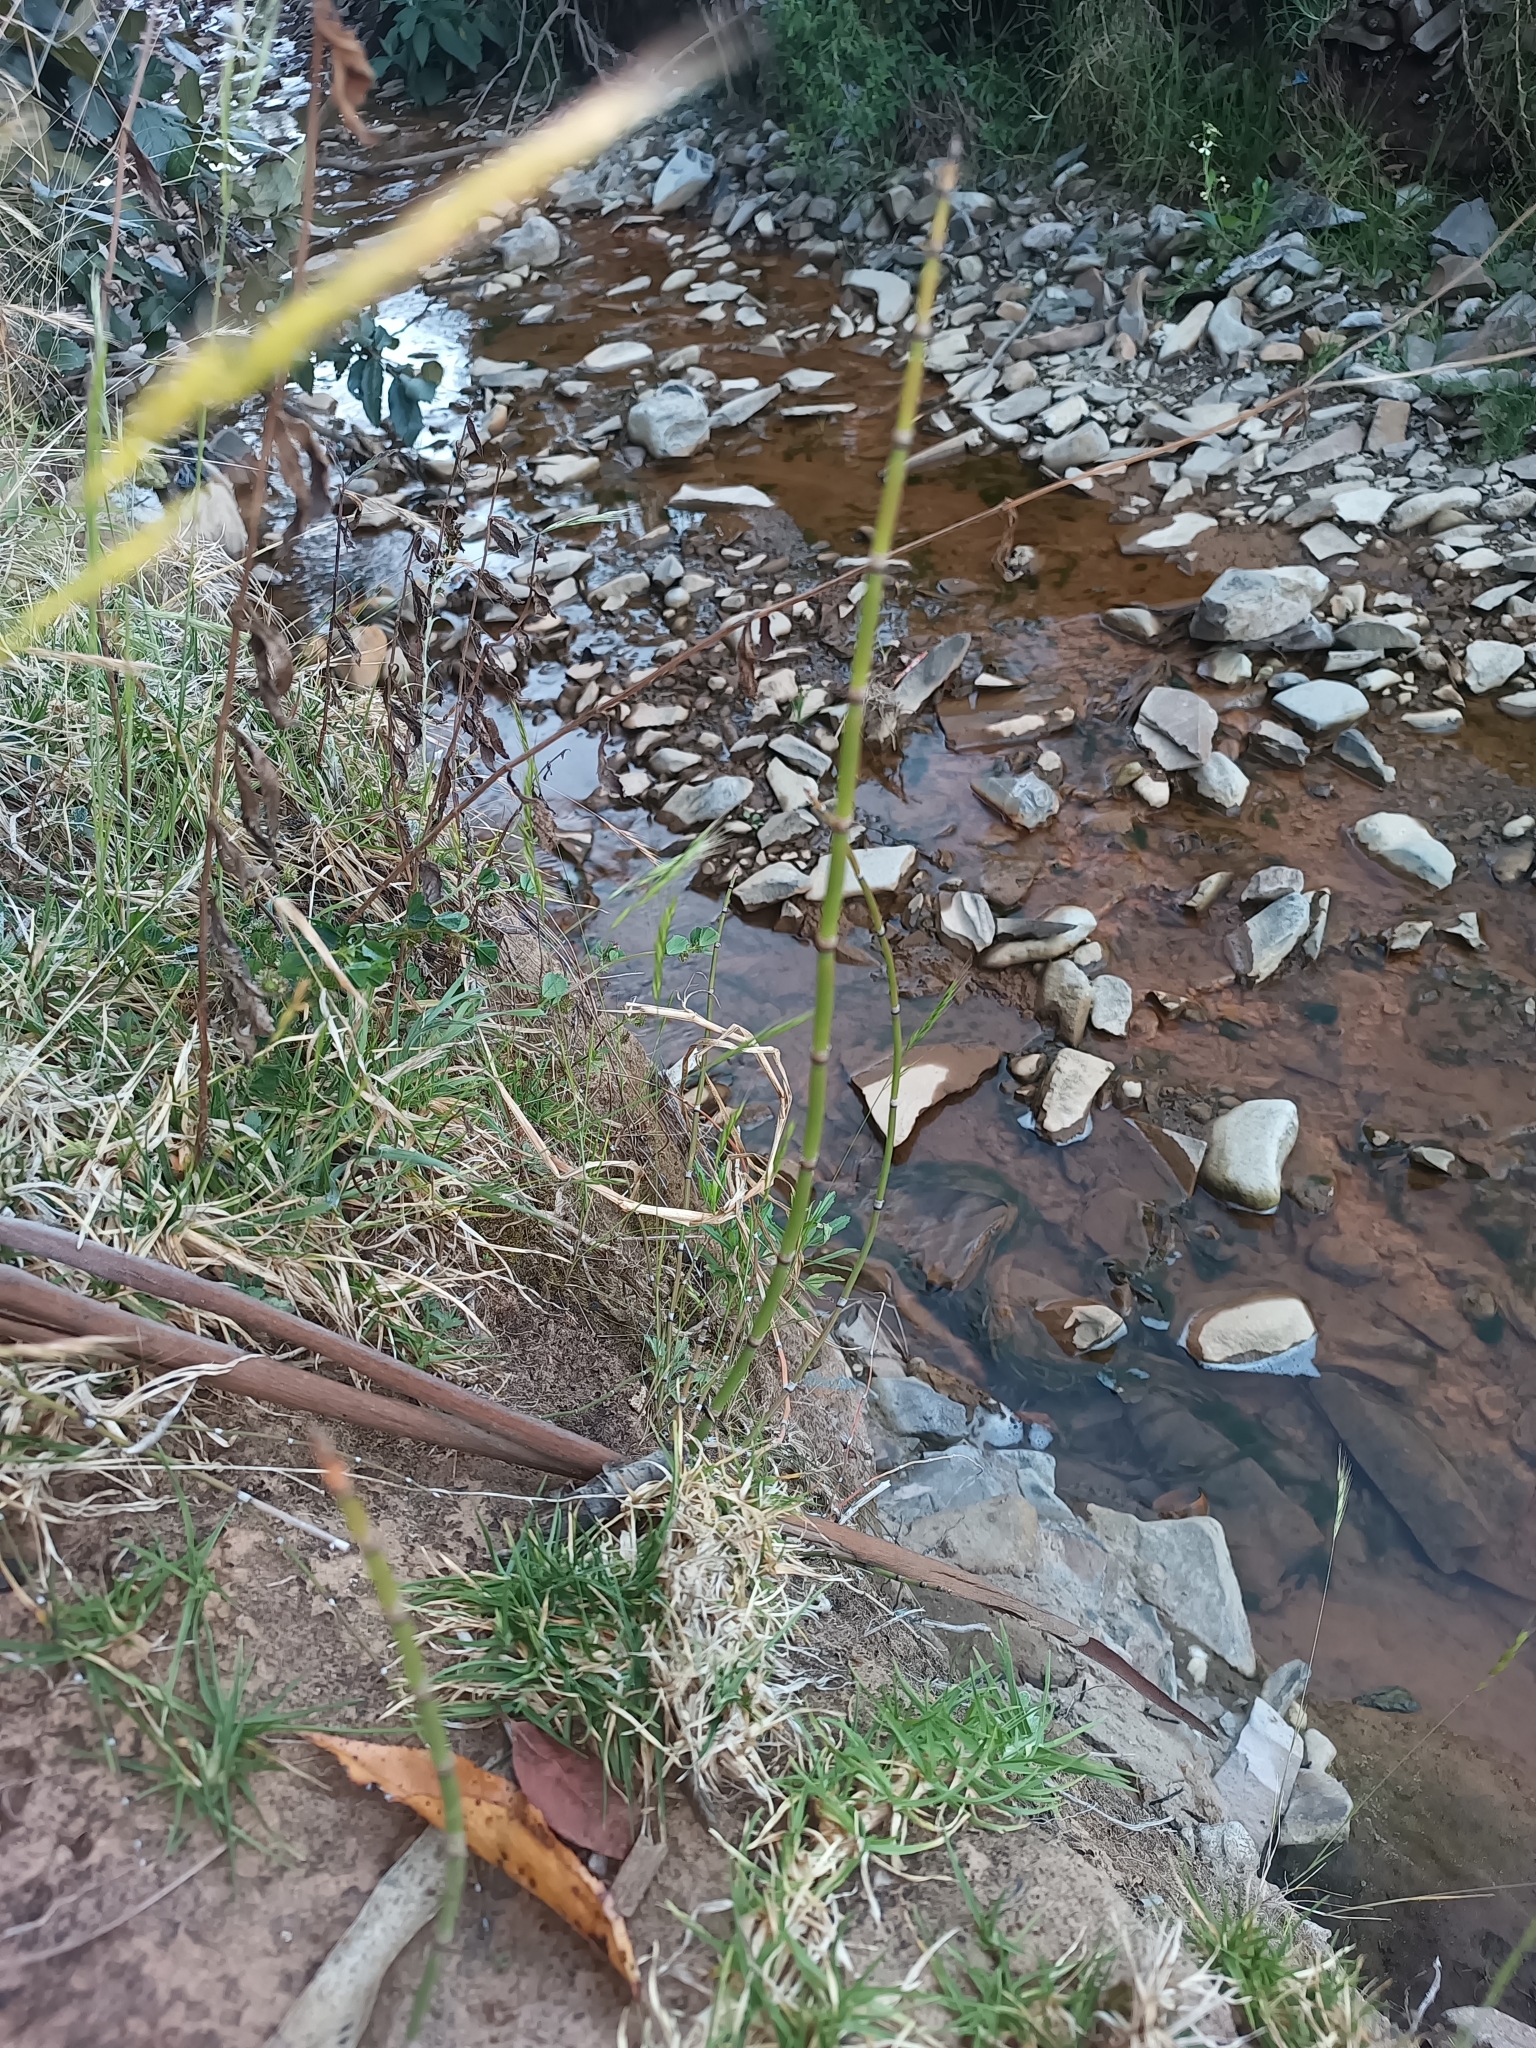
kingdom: Plantae
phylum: Tracheophyta
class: Polypodiopsida
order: Equisetales
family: Equisetaceae
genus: Equisetum
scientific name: Equisetum hyemale
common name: Rough horsetail
